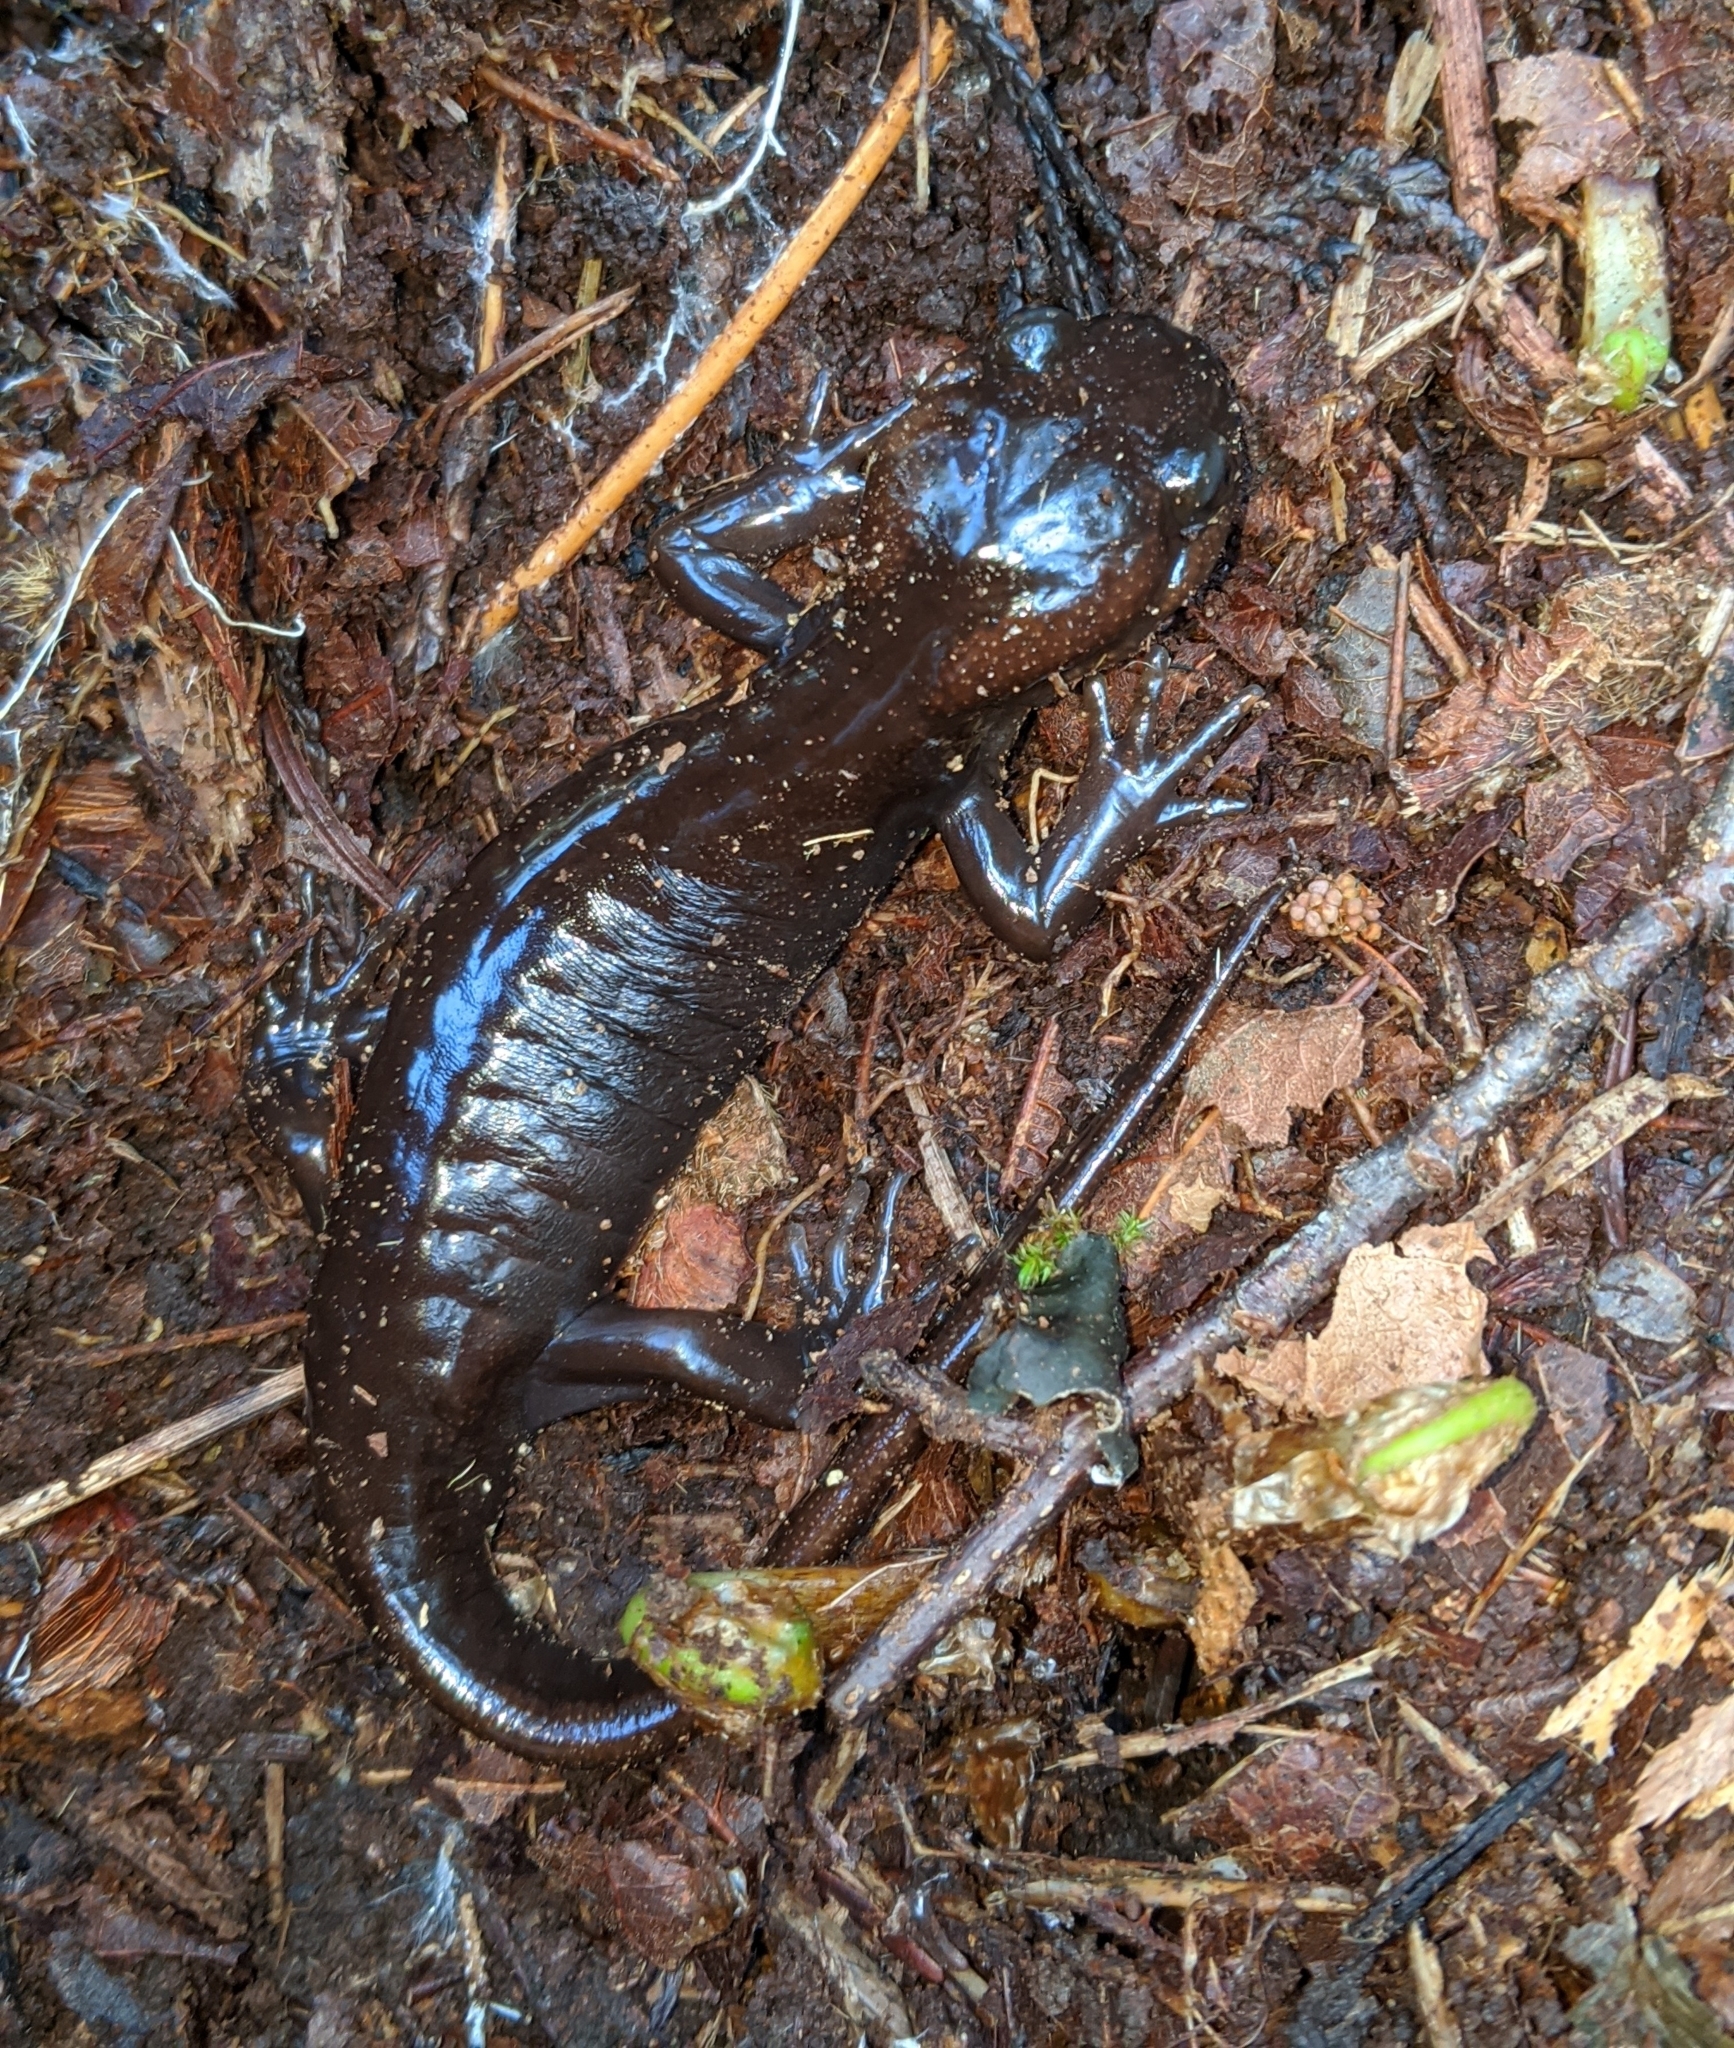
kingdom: Animalia
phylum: Chordata
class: Amphibia
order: Caudata
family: Ambystomatidae
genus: Ambystoma
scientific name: Ambystoma gracile
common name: Northwestern salamander
